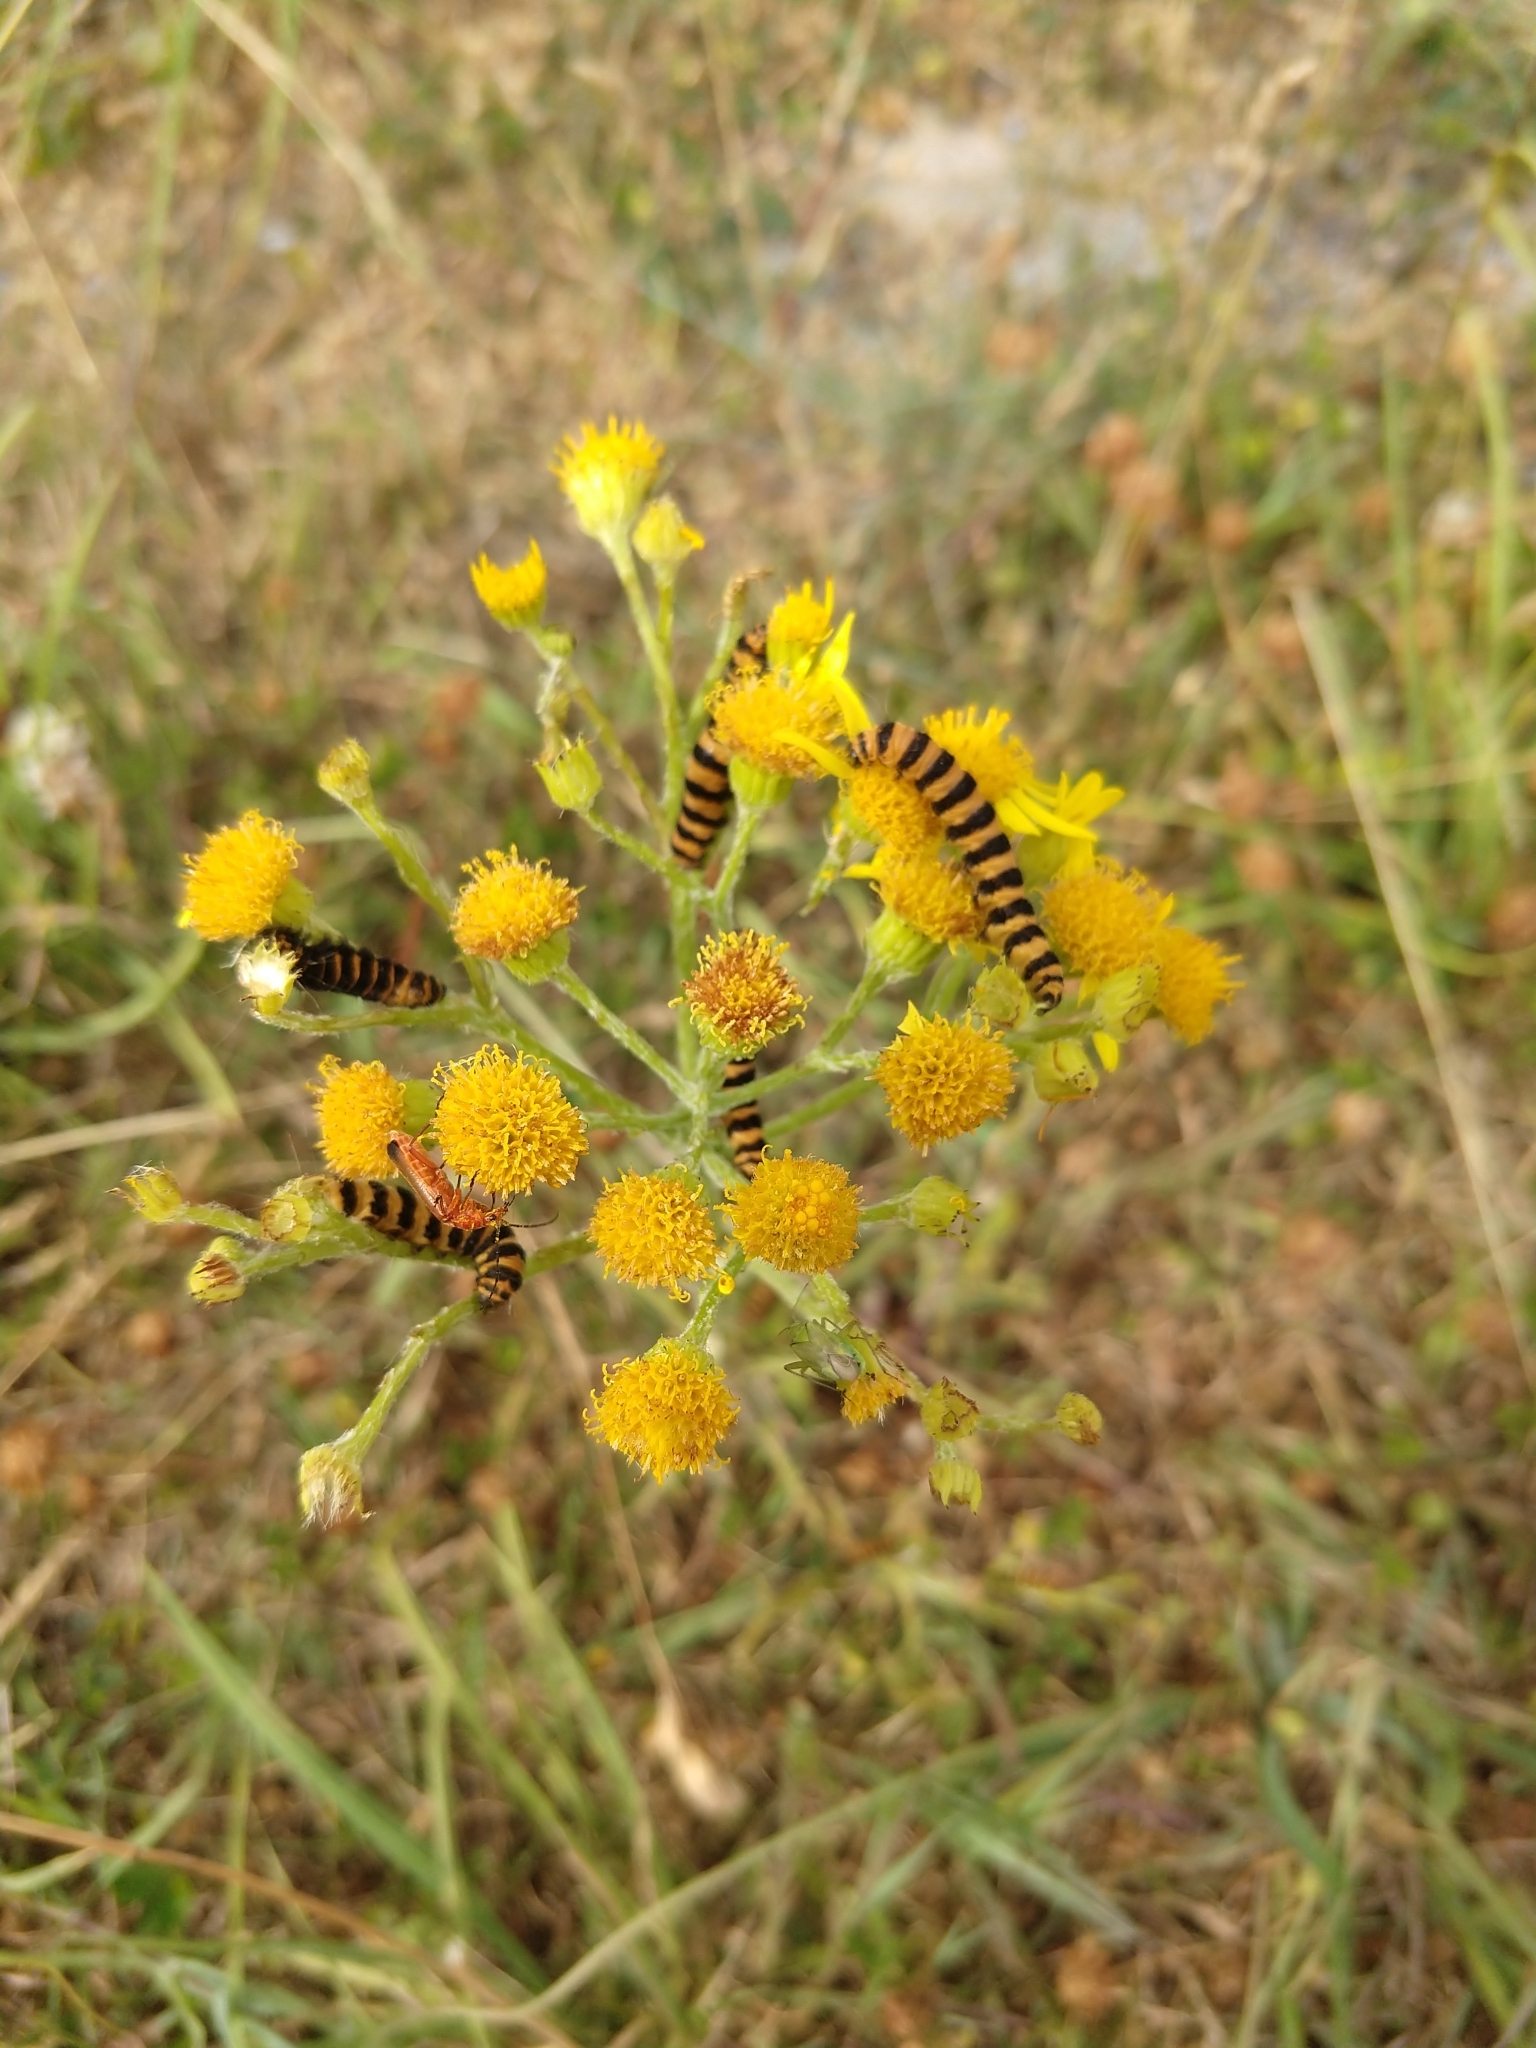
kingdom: Animalia
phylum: Arthropoda
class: Insecta
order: Lepidoptera
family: Erebidae
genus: Tyria
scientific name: Tyria jacobaeae
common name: Cinnabar
